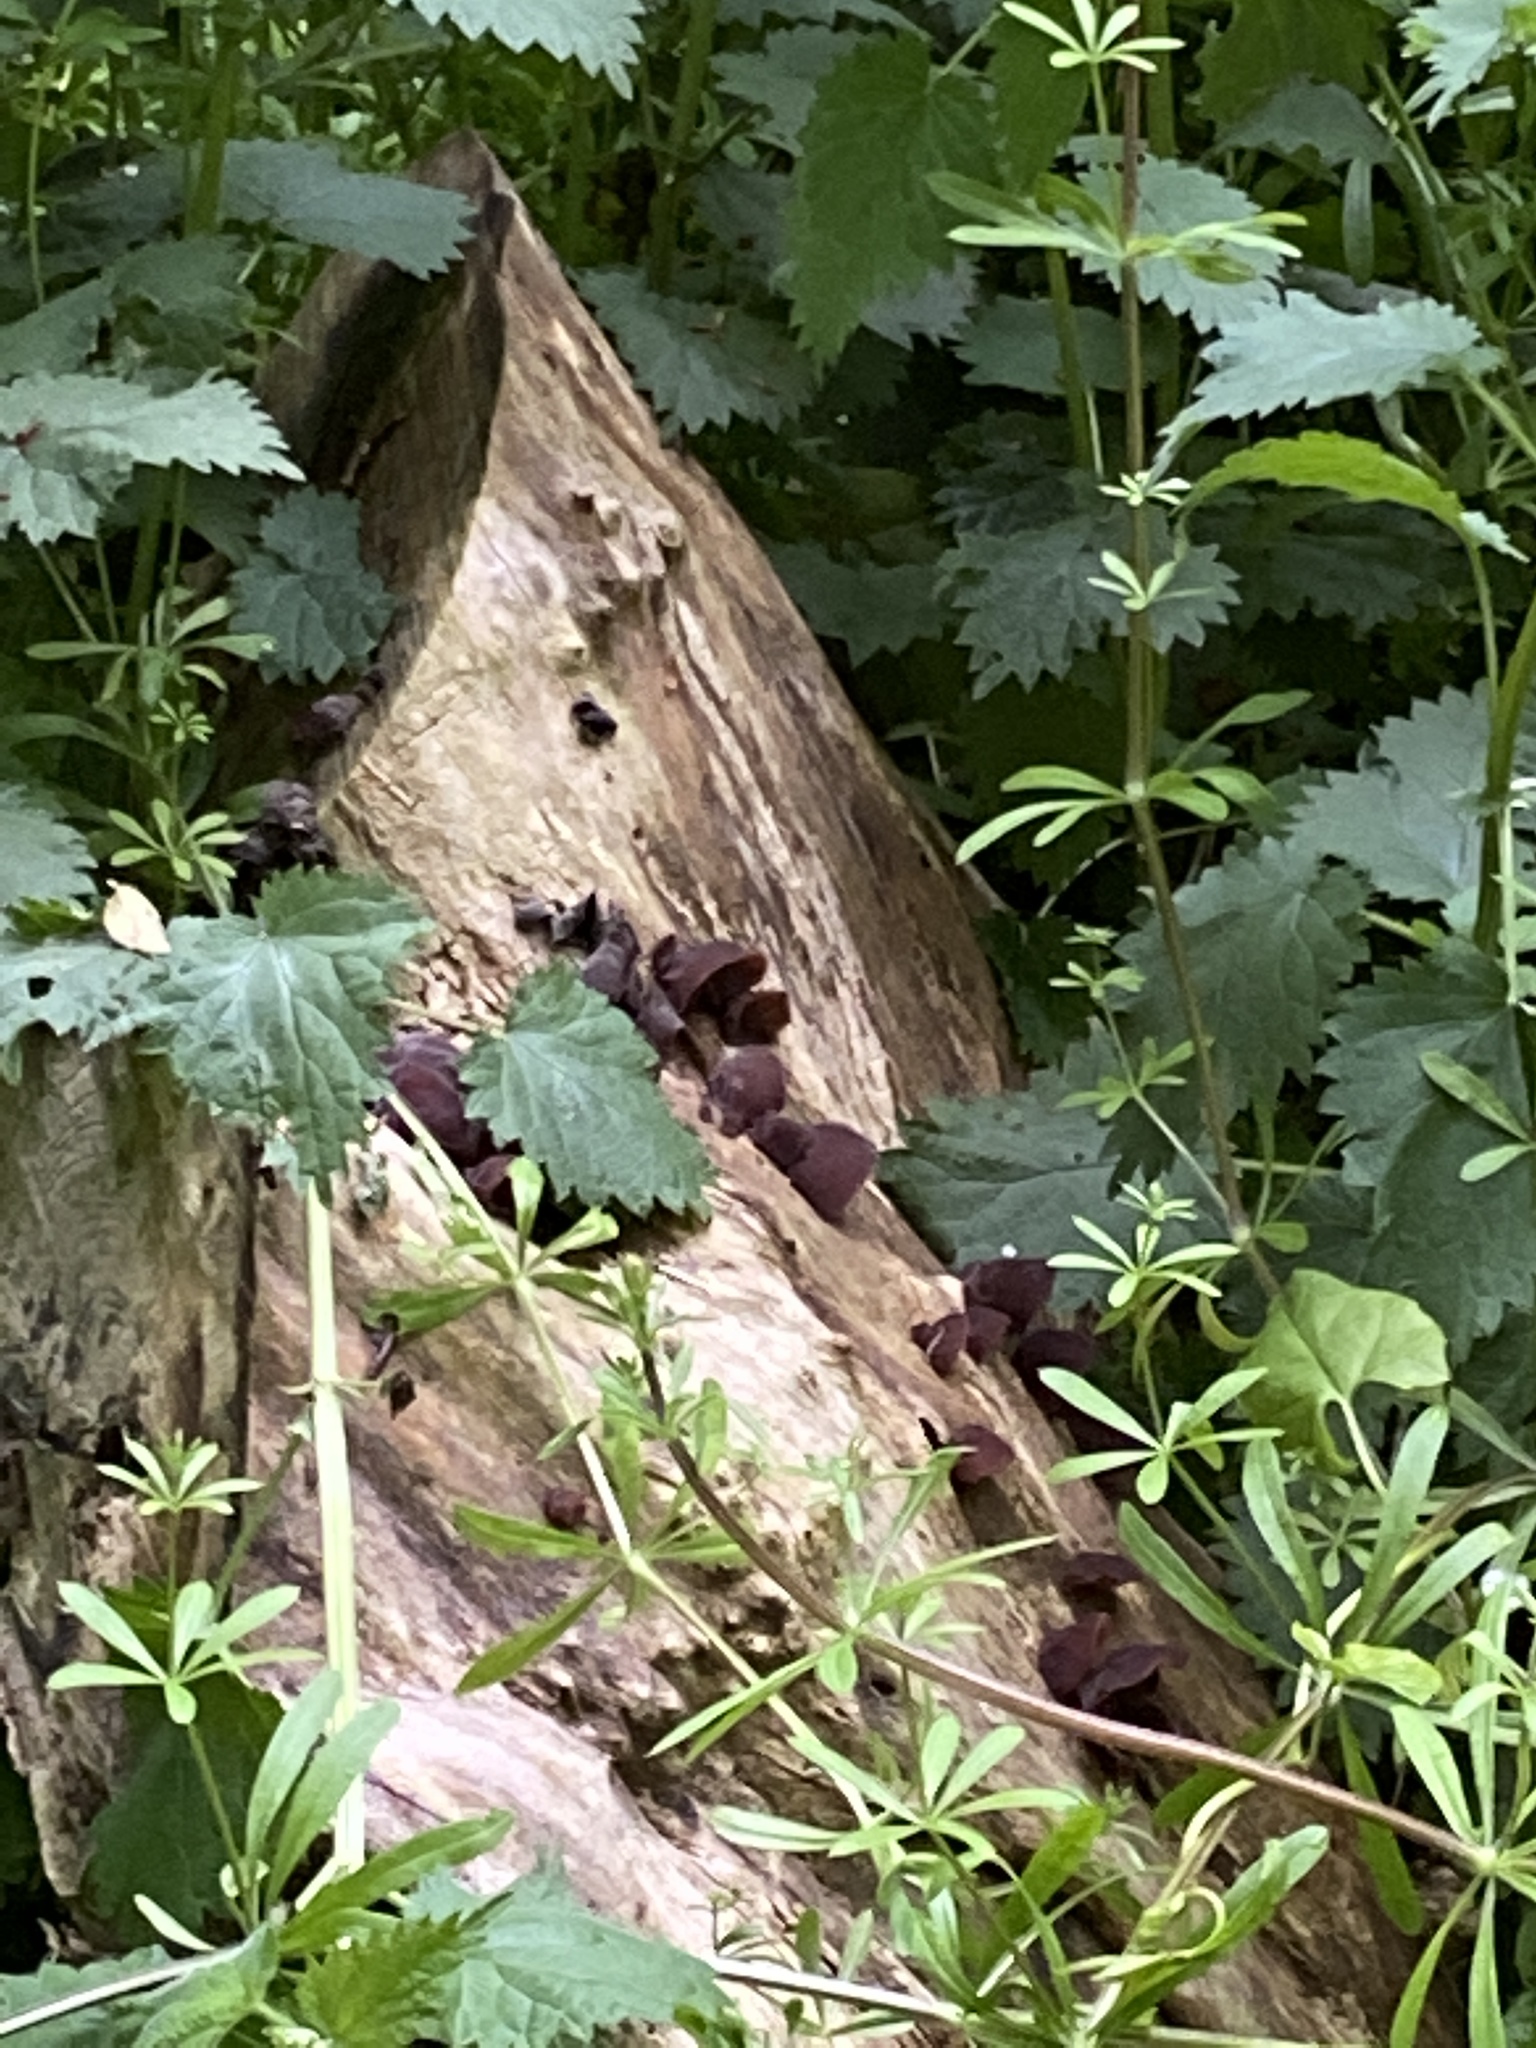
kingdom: Fungi
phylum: Basidiomycota
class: Agaricomycetes
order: Auriculariales
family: Auriculariaceae
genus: Auricularia
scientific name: Auricularia auricula-judae
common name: Jelly ear
